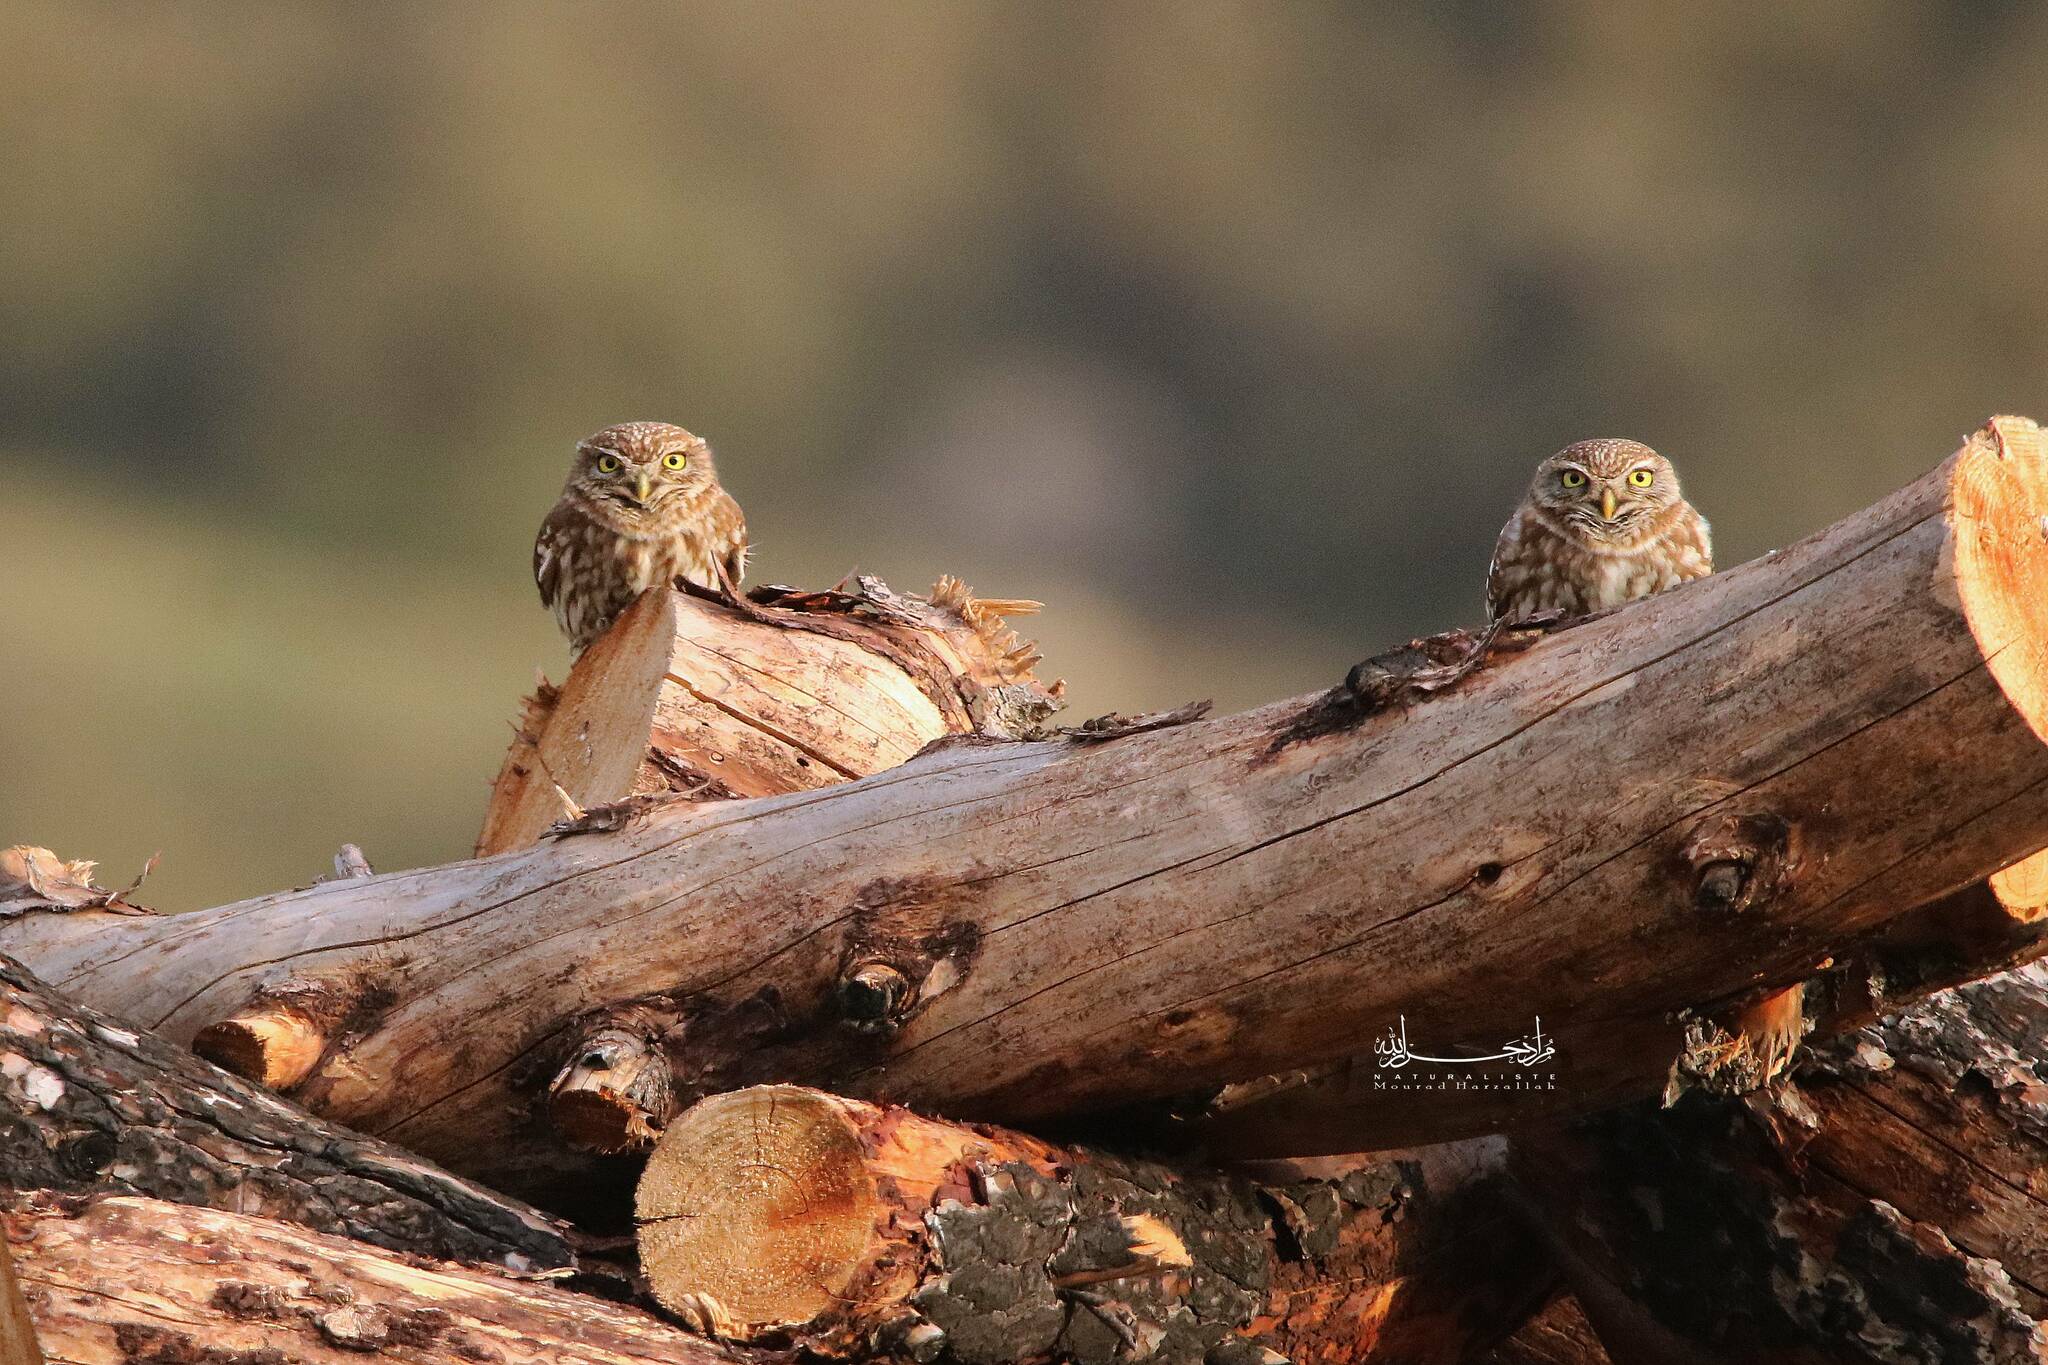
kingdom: Animalia
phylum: Chordata
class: Aves
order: Strigiformes
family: Strigidae
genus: Athene
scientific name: Athene noctua
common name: Little owl
